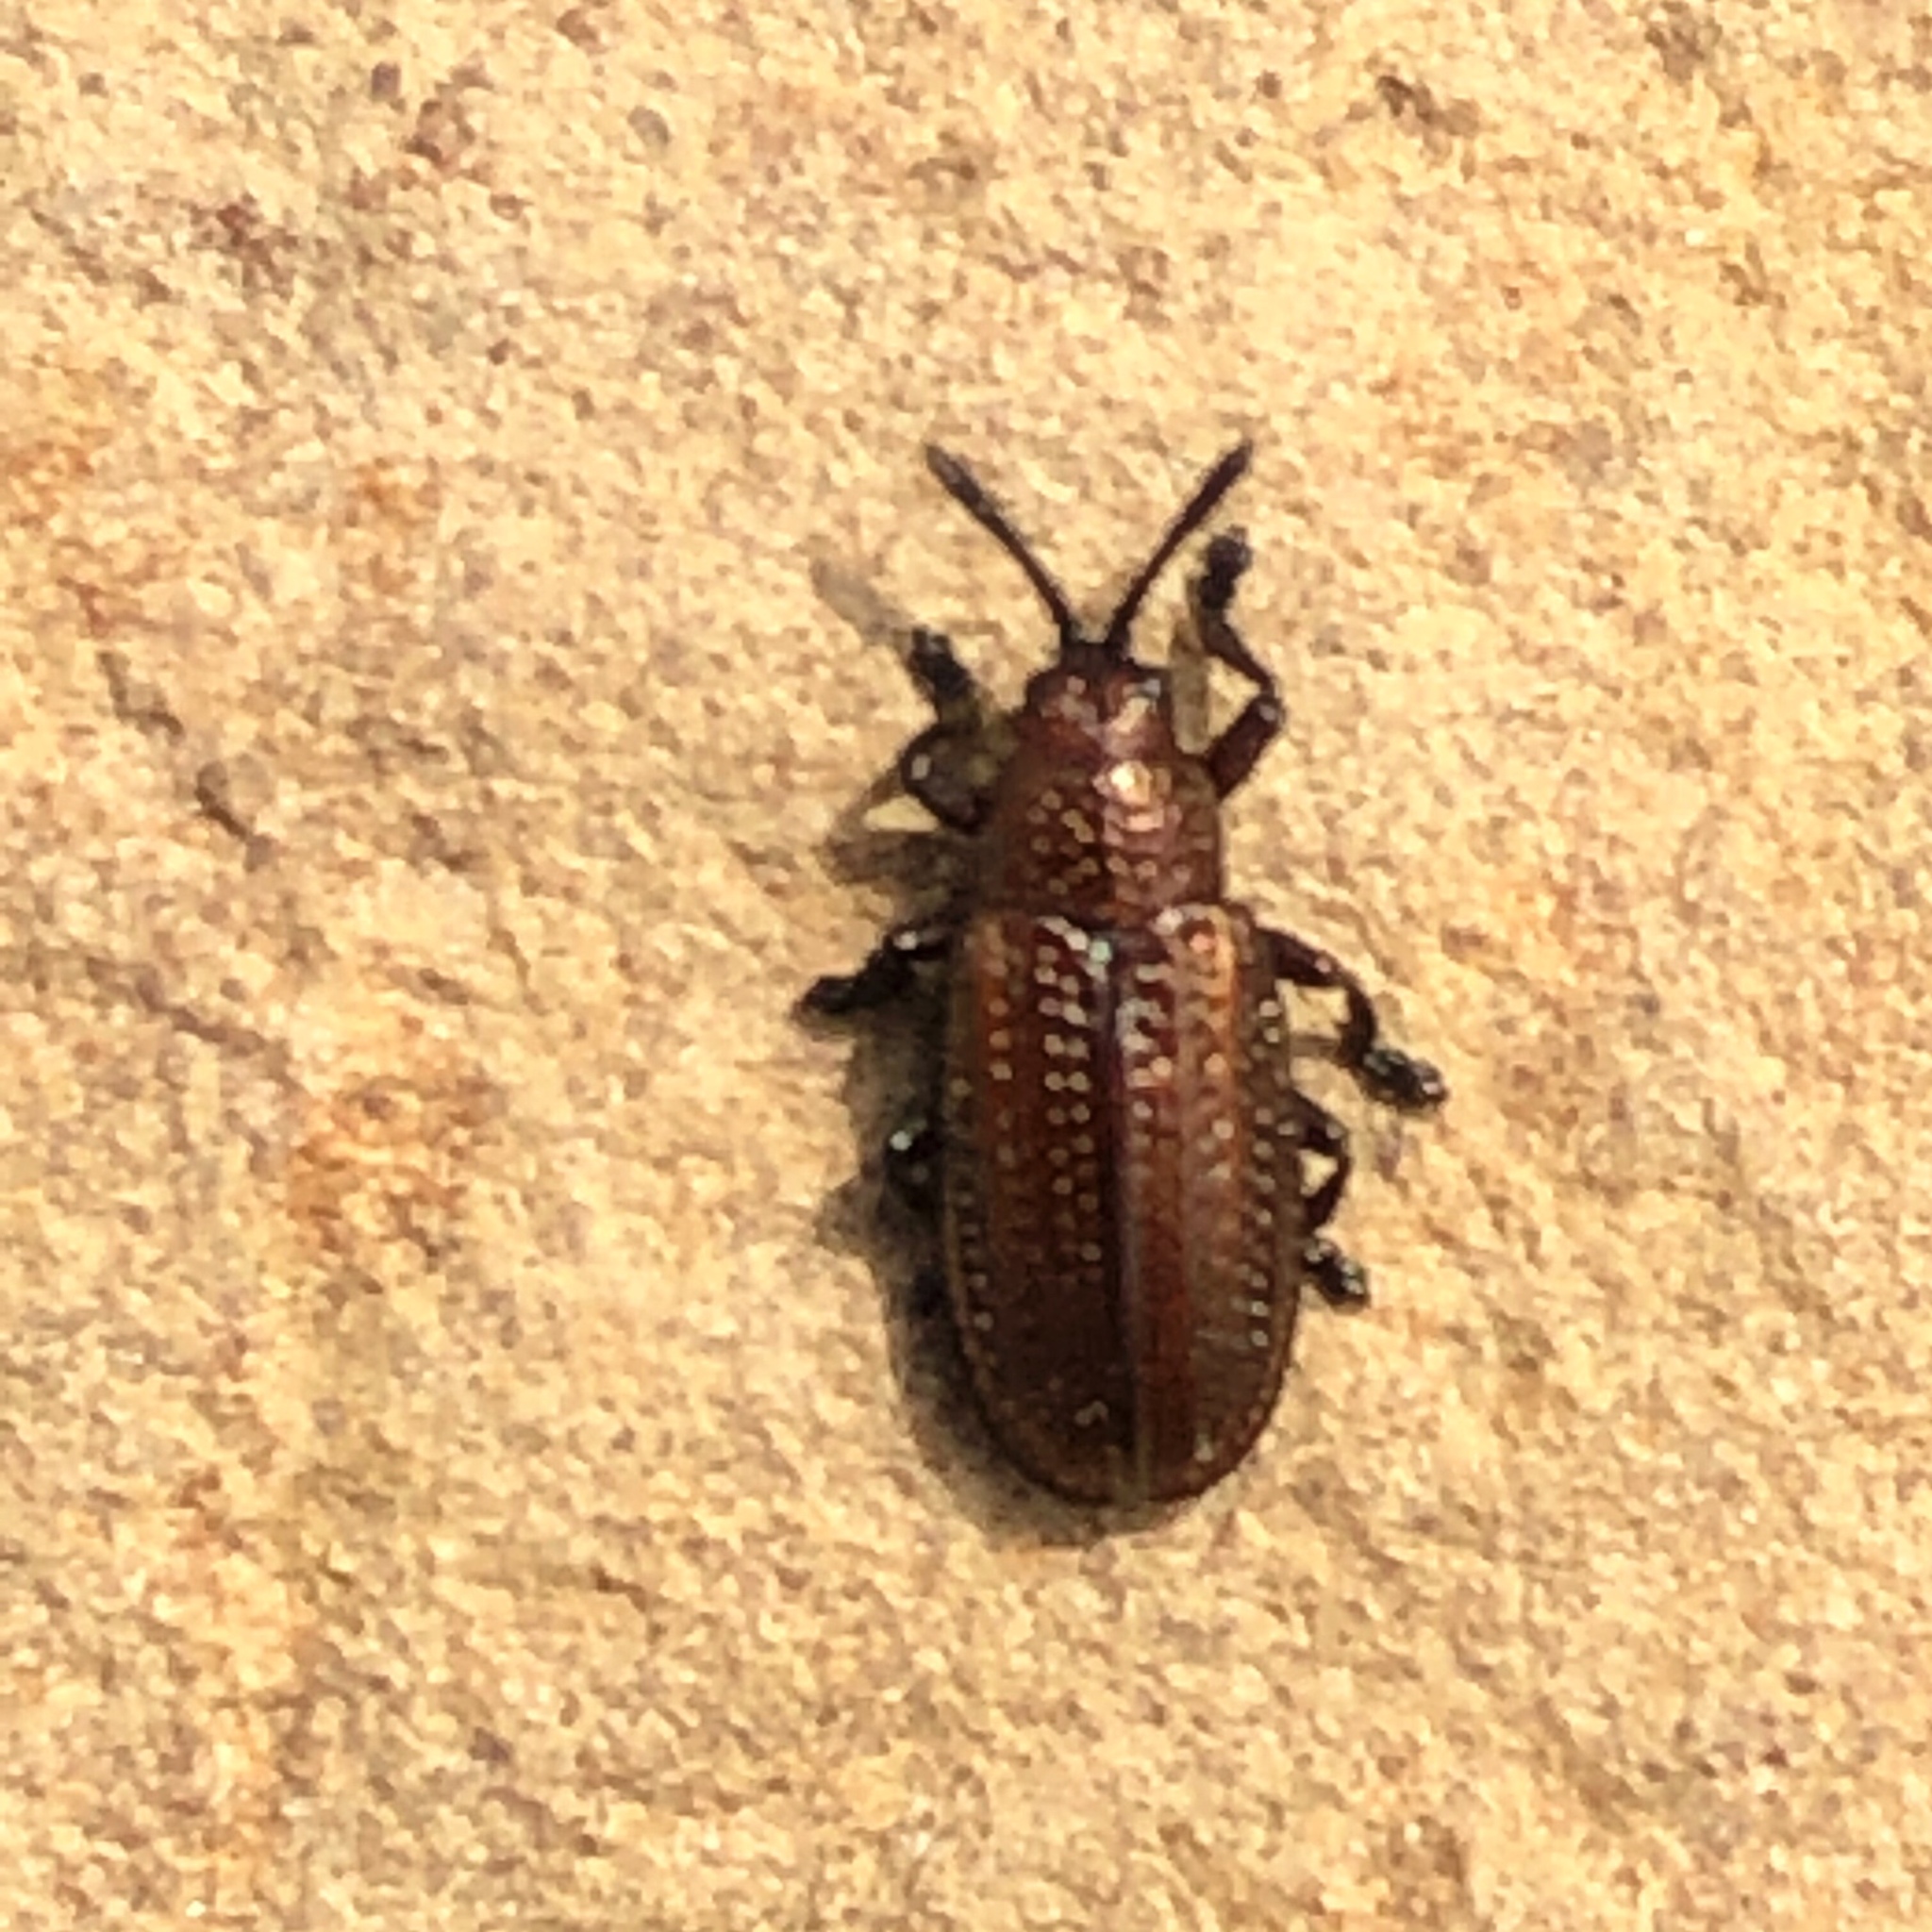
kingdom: Animalia
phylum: Arthropoda
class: Insecta
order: Coleoptera
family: Chrysomelidae
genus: Microrhopala
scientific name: Microrhopala vittata
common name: Goldenrod leaf miner beetle
